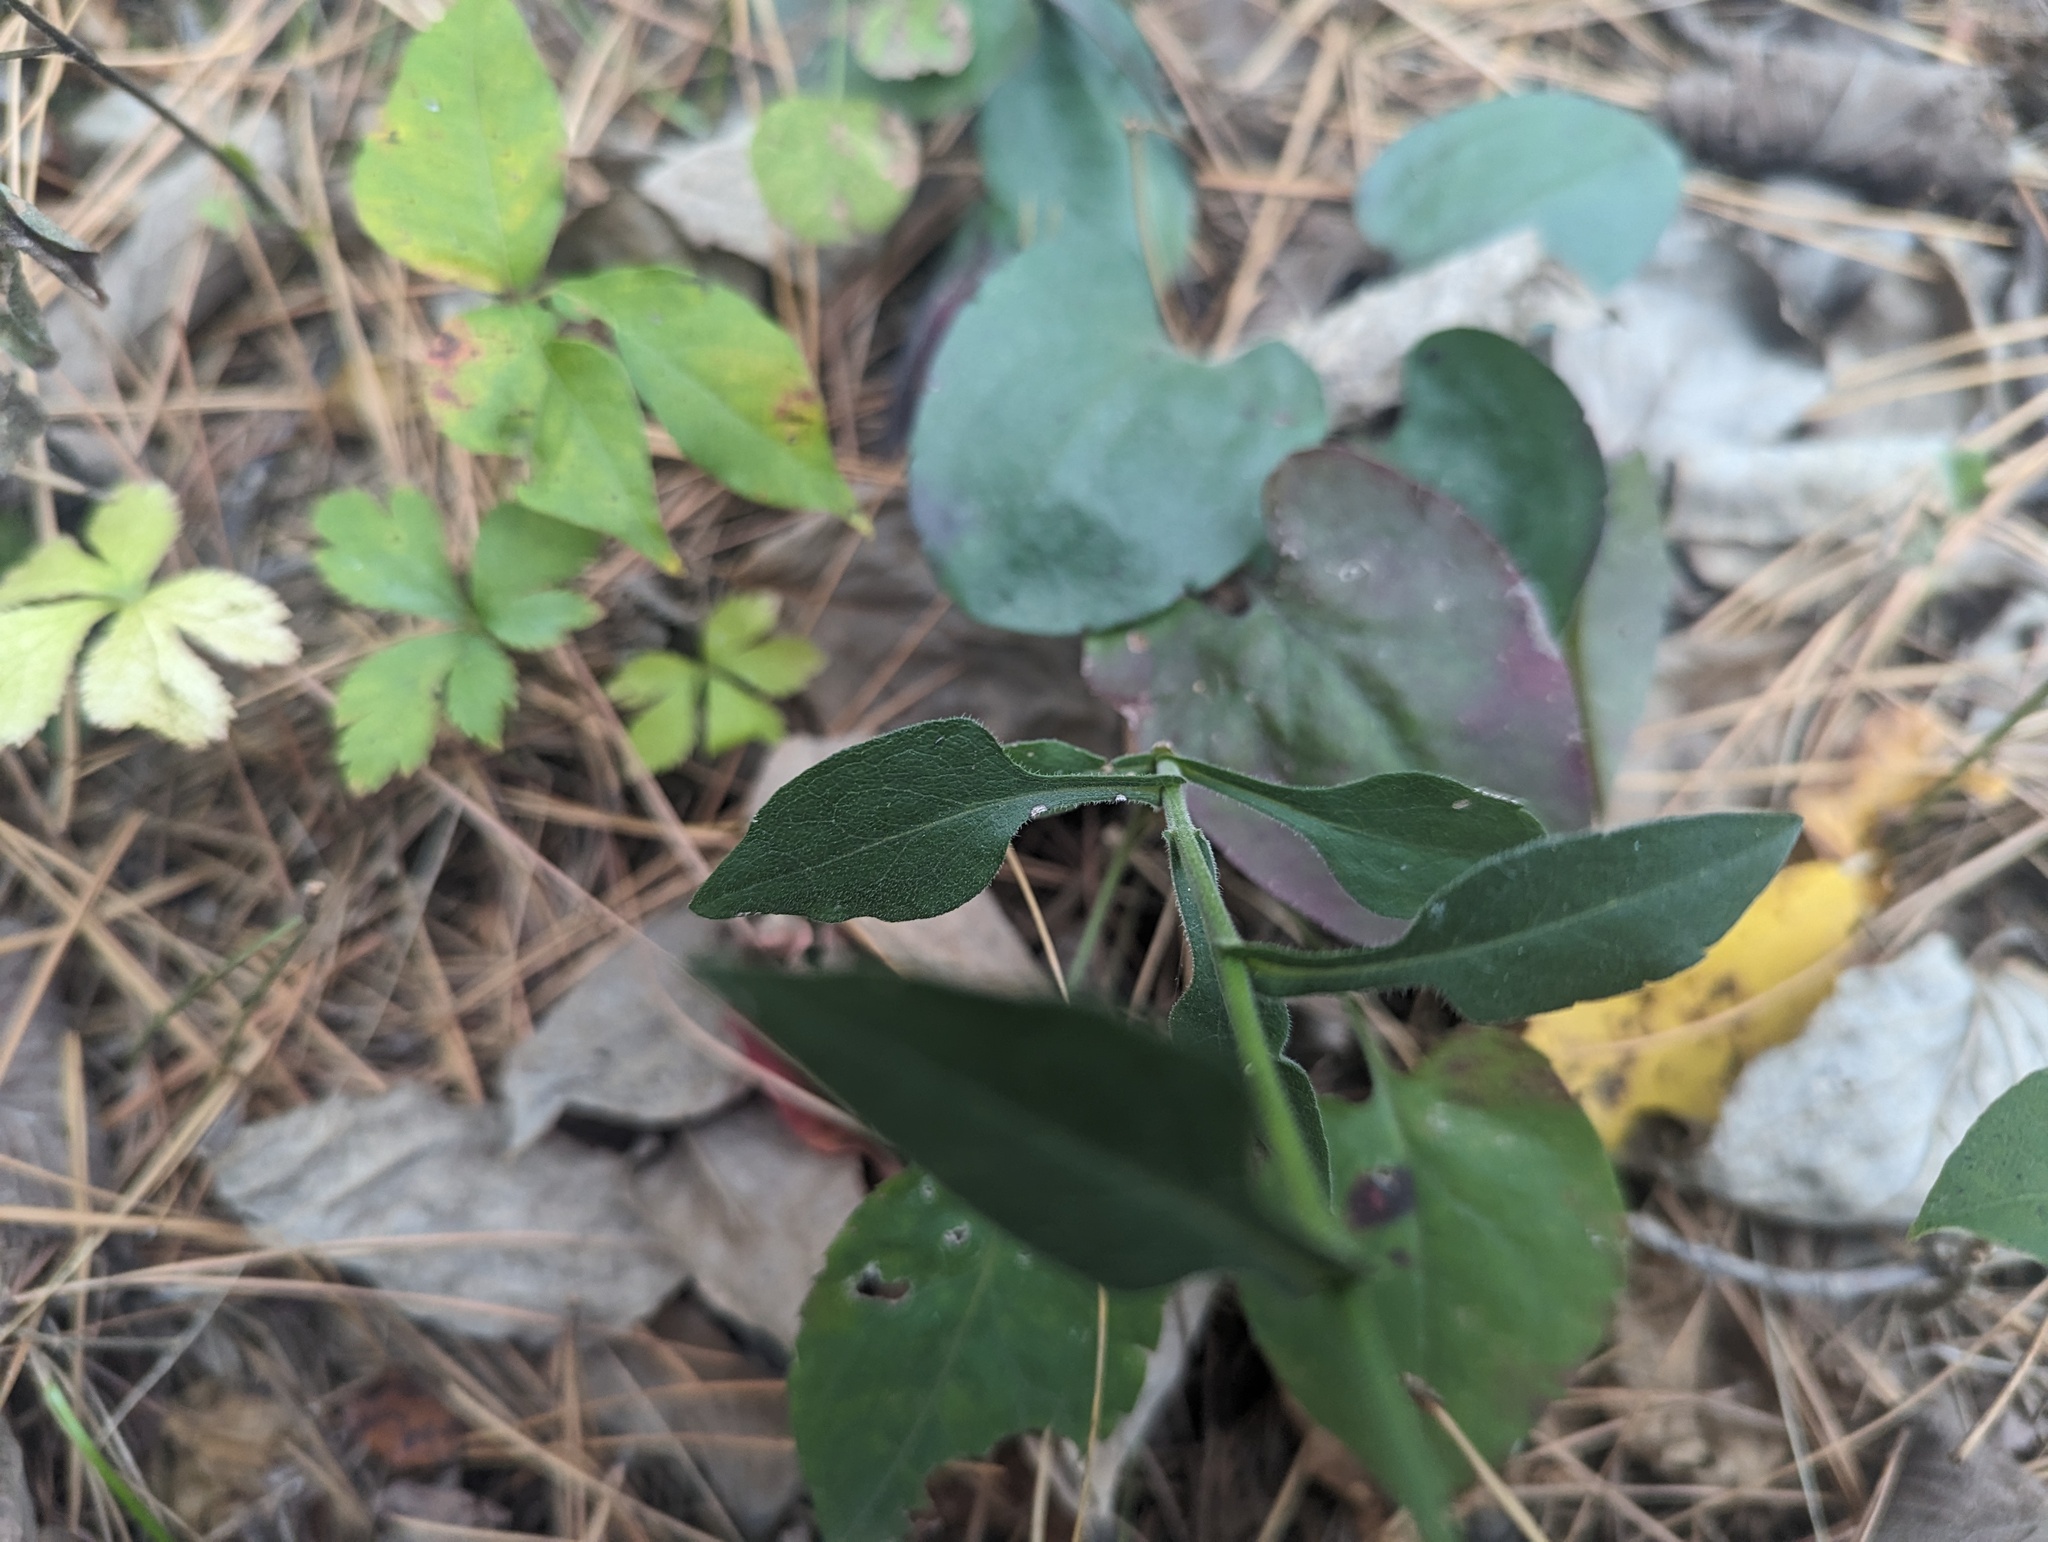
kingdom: Plantae
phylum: Tracheophyta
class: Magnoliopsida
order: Asterales
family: Asteraceae
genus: Symphyotrichum
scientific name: Symphyotrichum undulatum
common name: Clasping heart-leaf aster
